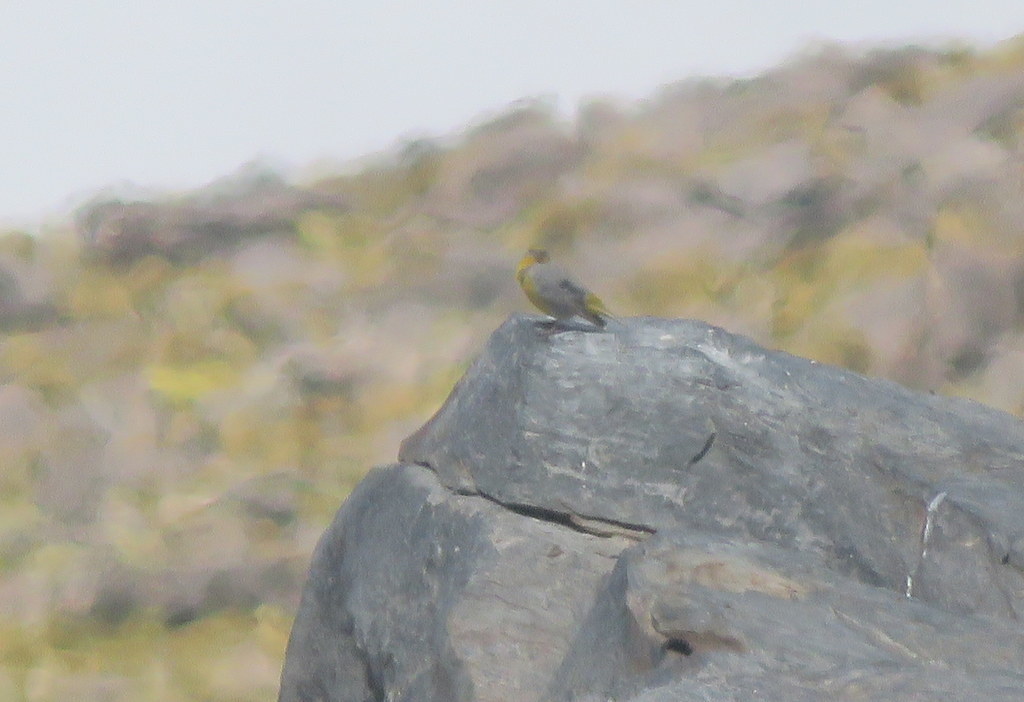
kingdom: Animalia
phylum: Chordata
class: Aves
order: Passeriformes
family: Thraupidae
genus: Sicalis
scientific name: Sicalis uropigyalis
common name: Bright-rumped yellow finch
